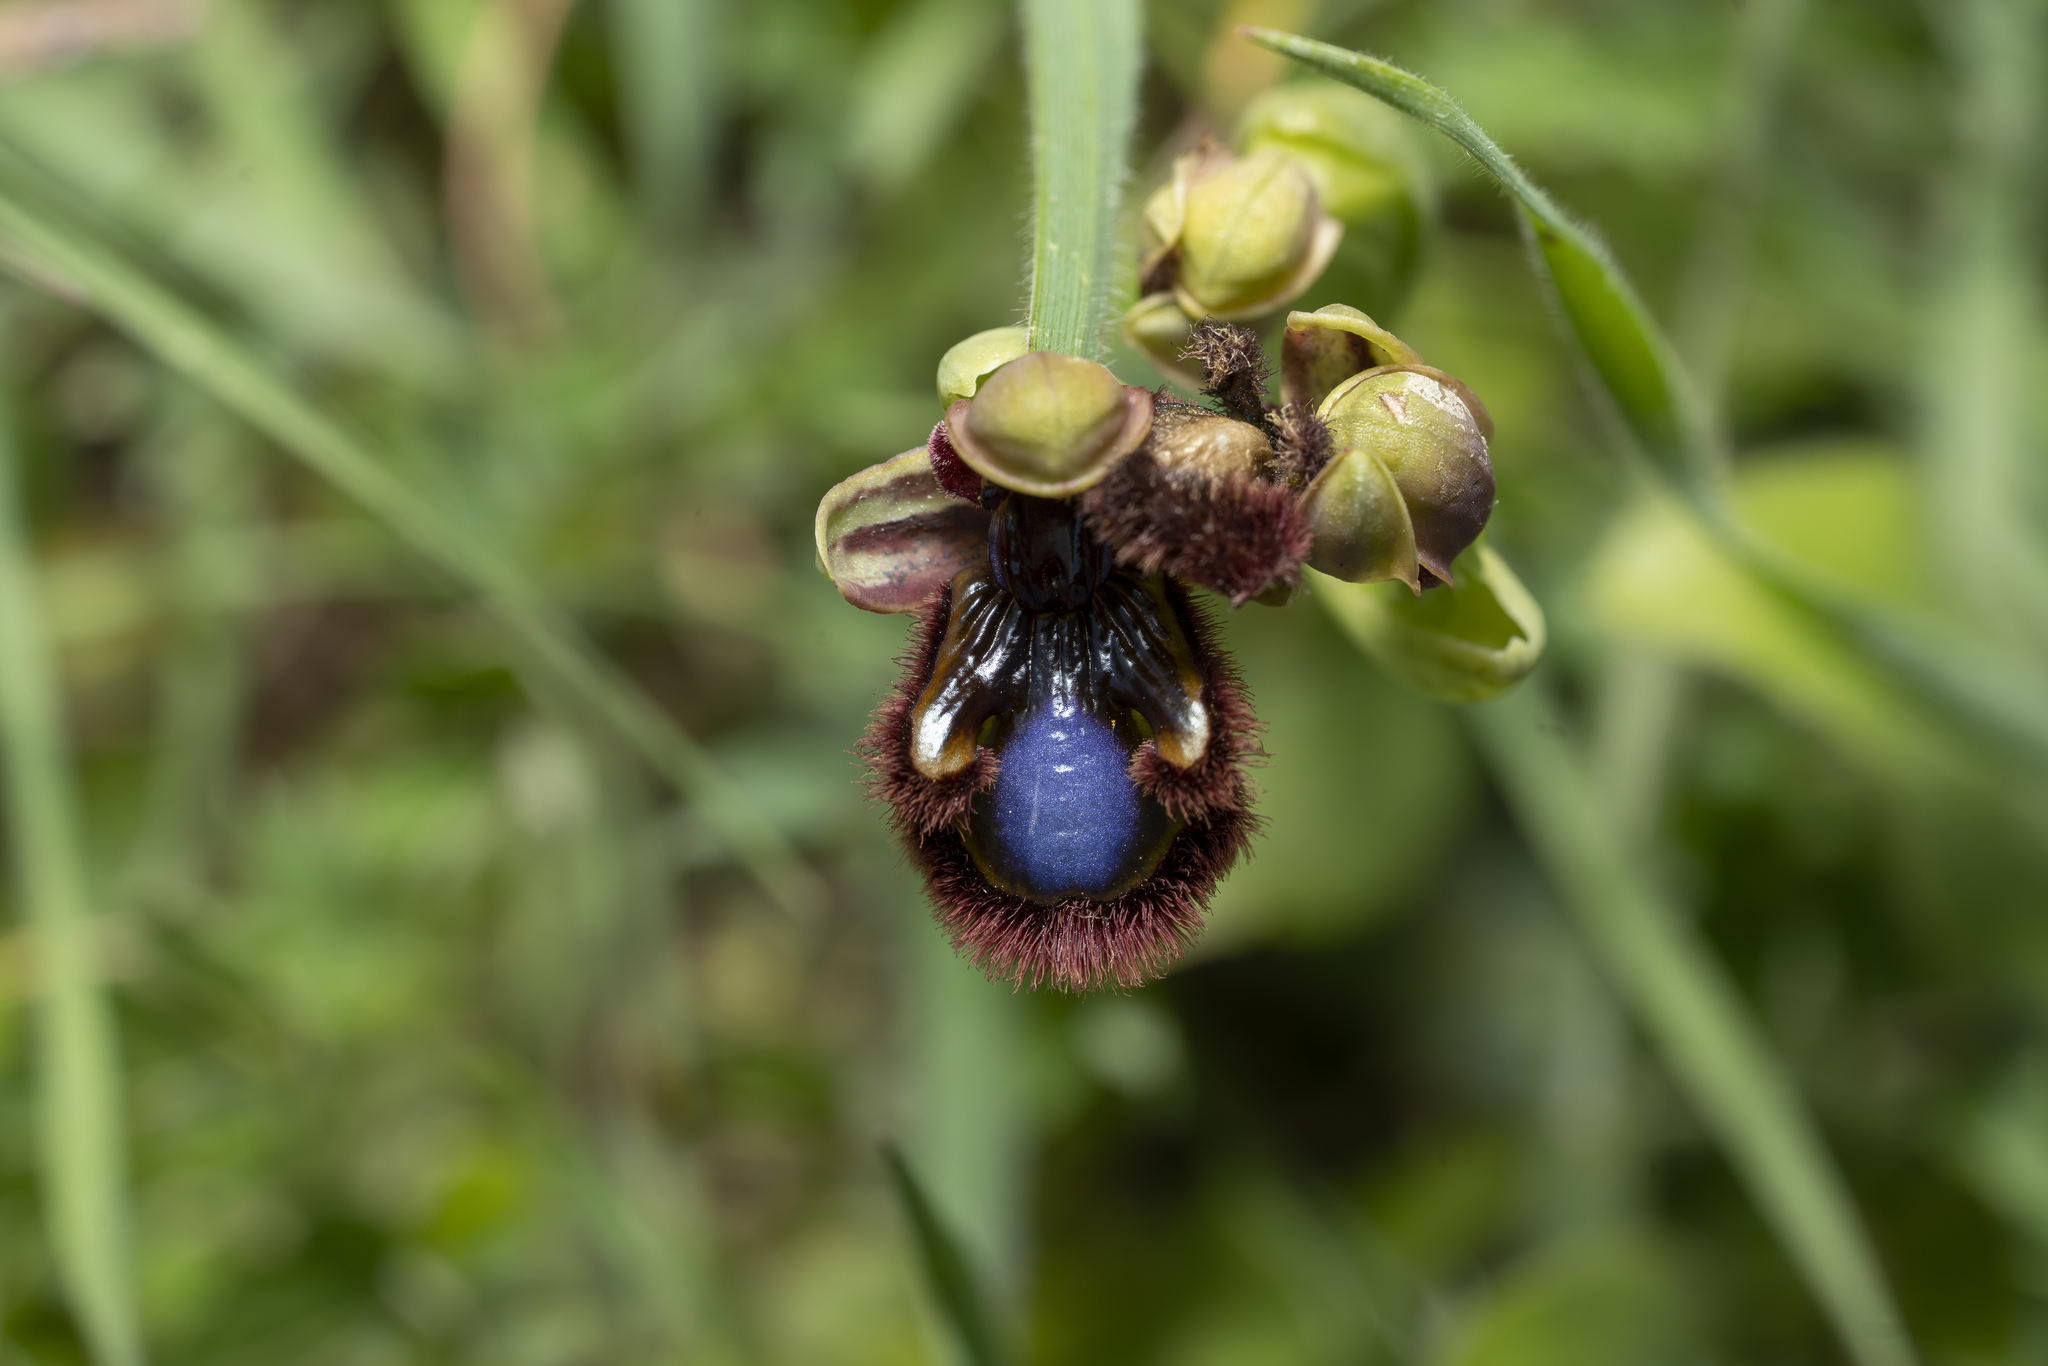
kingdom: Plantae
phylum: Tracheophyta
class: Liliopsida
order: Asparagales
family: Orchidaceae
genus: Ophrys
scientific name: Ophrys speculum
